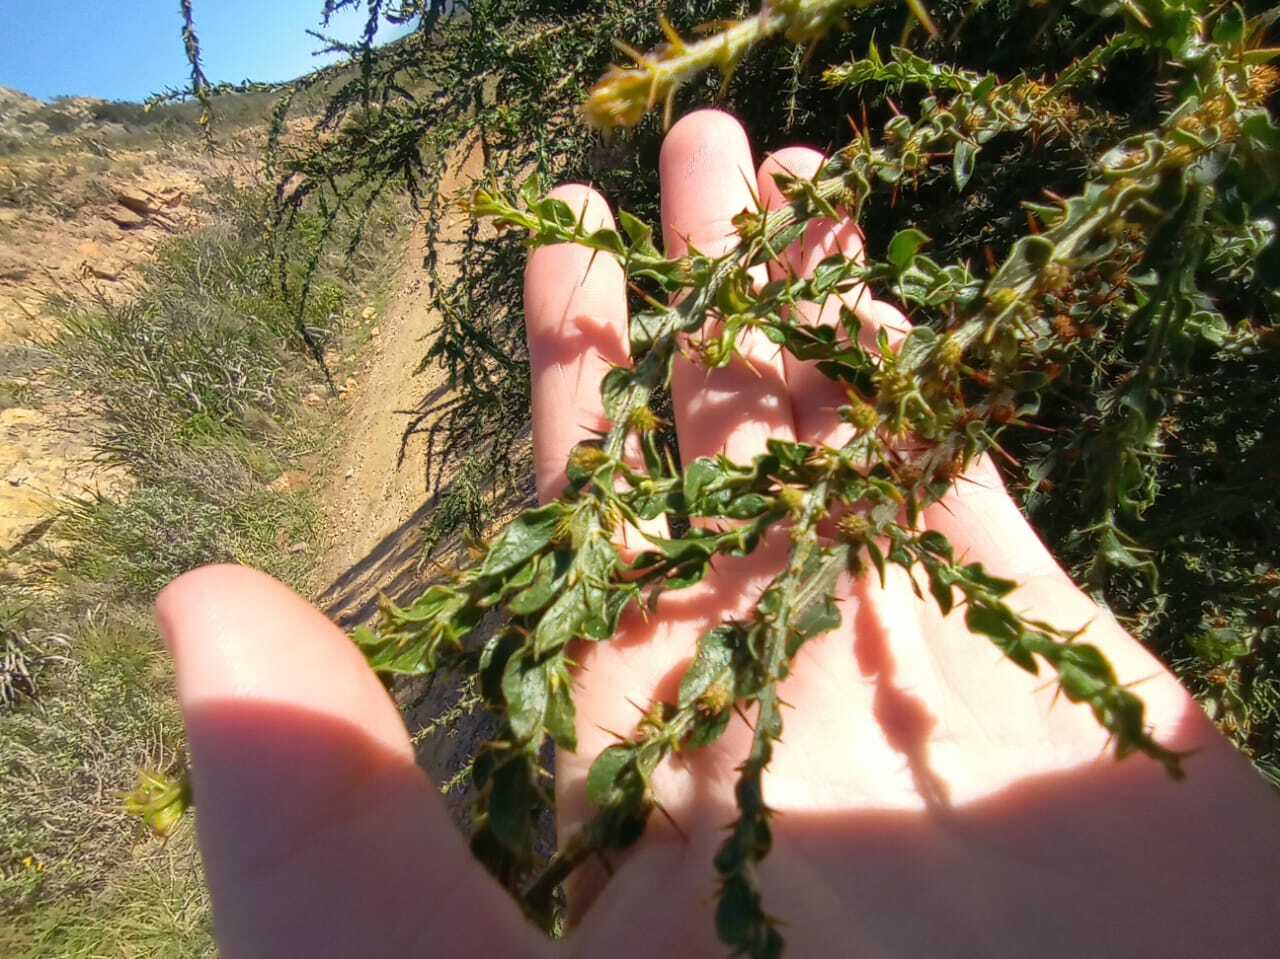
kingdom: Plantae
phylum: Tracheophyta
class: Magnoliopsida
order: Fabales
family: Fabaceae
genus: Acacia
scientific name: Acacia paradoxa
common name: Paradox acacia
